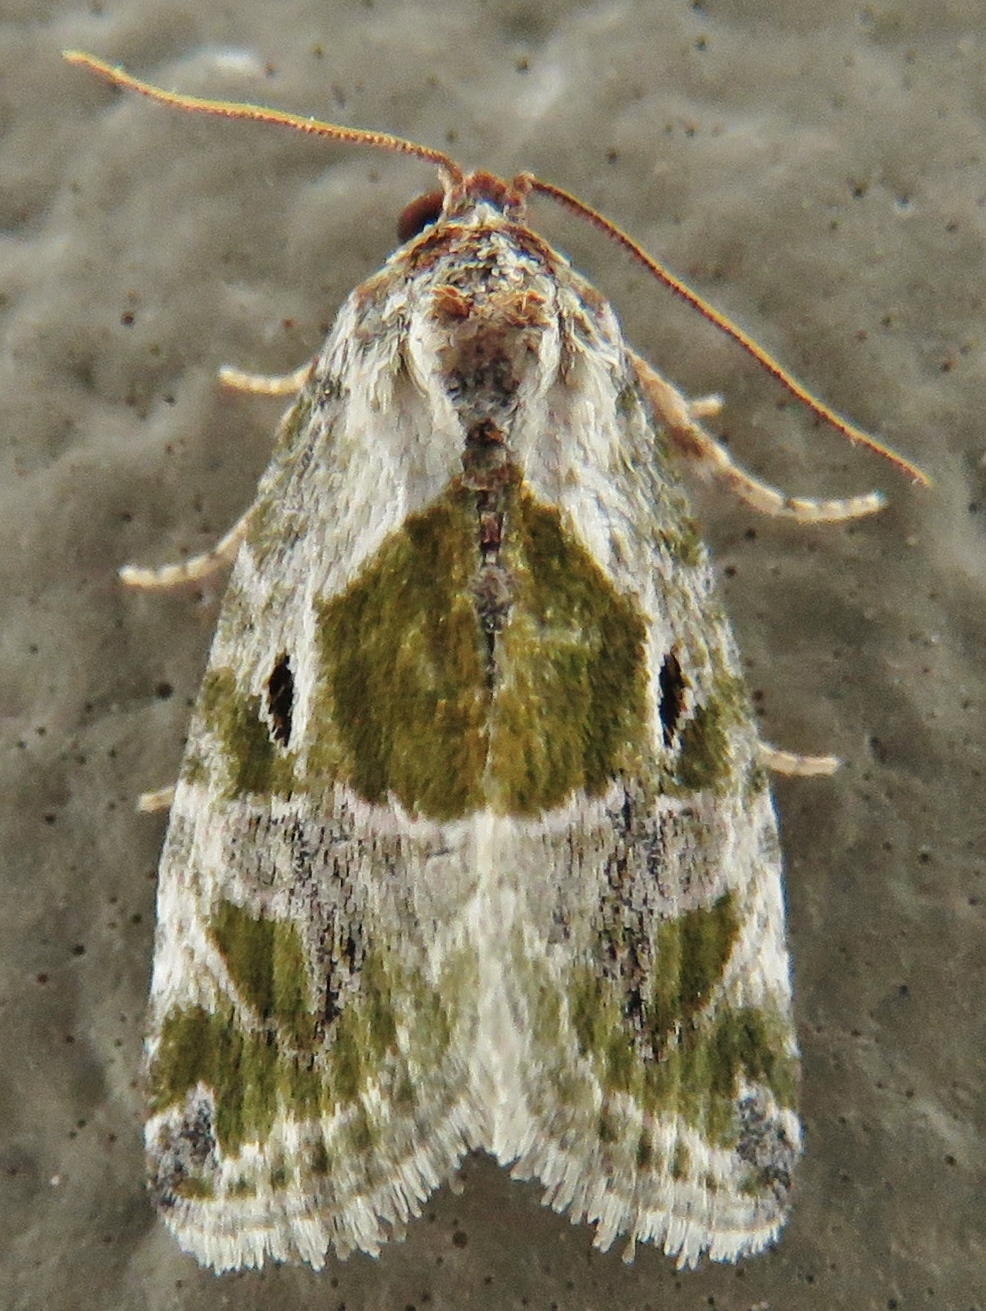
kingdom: Animalia
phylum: Arthropoda
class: Insecta
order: Lepidoptera
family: Noctuidae
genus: Maliattha
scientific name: Maliattha synochitis
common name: Black-dotted glyph
